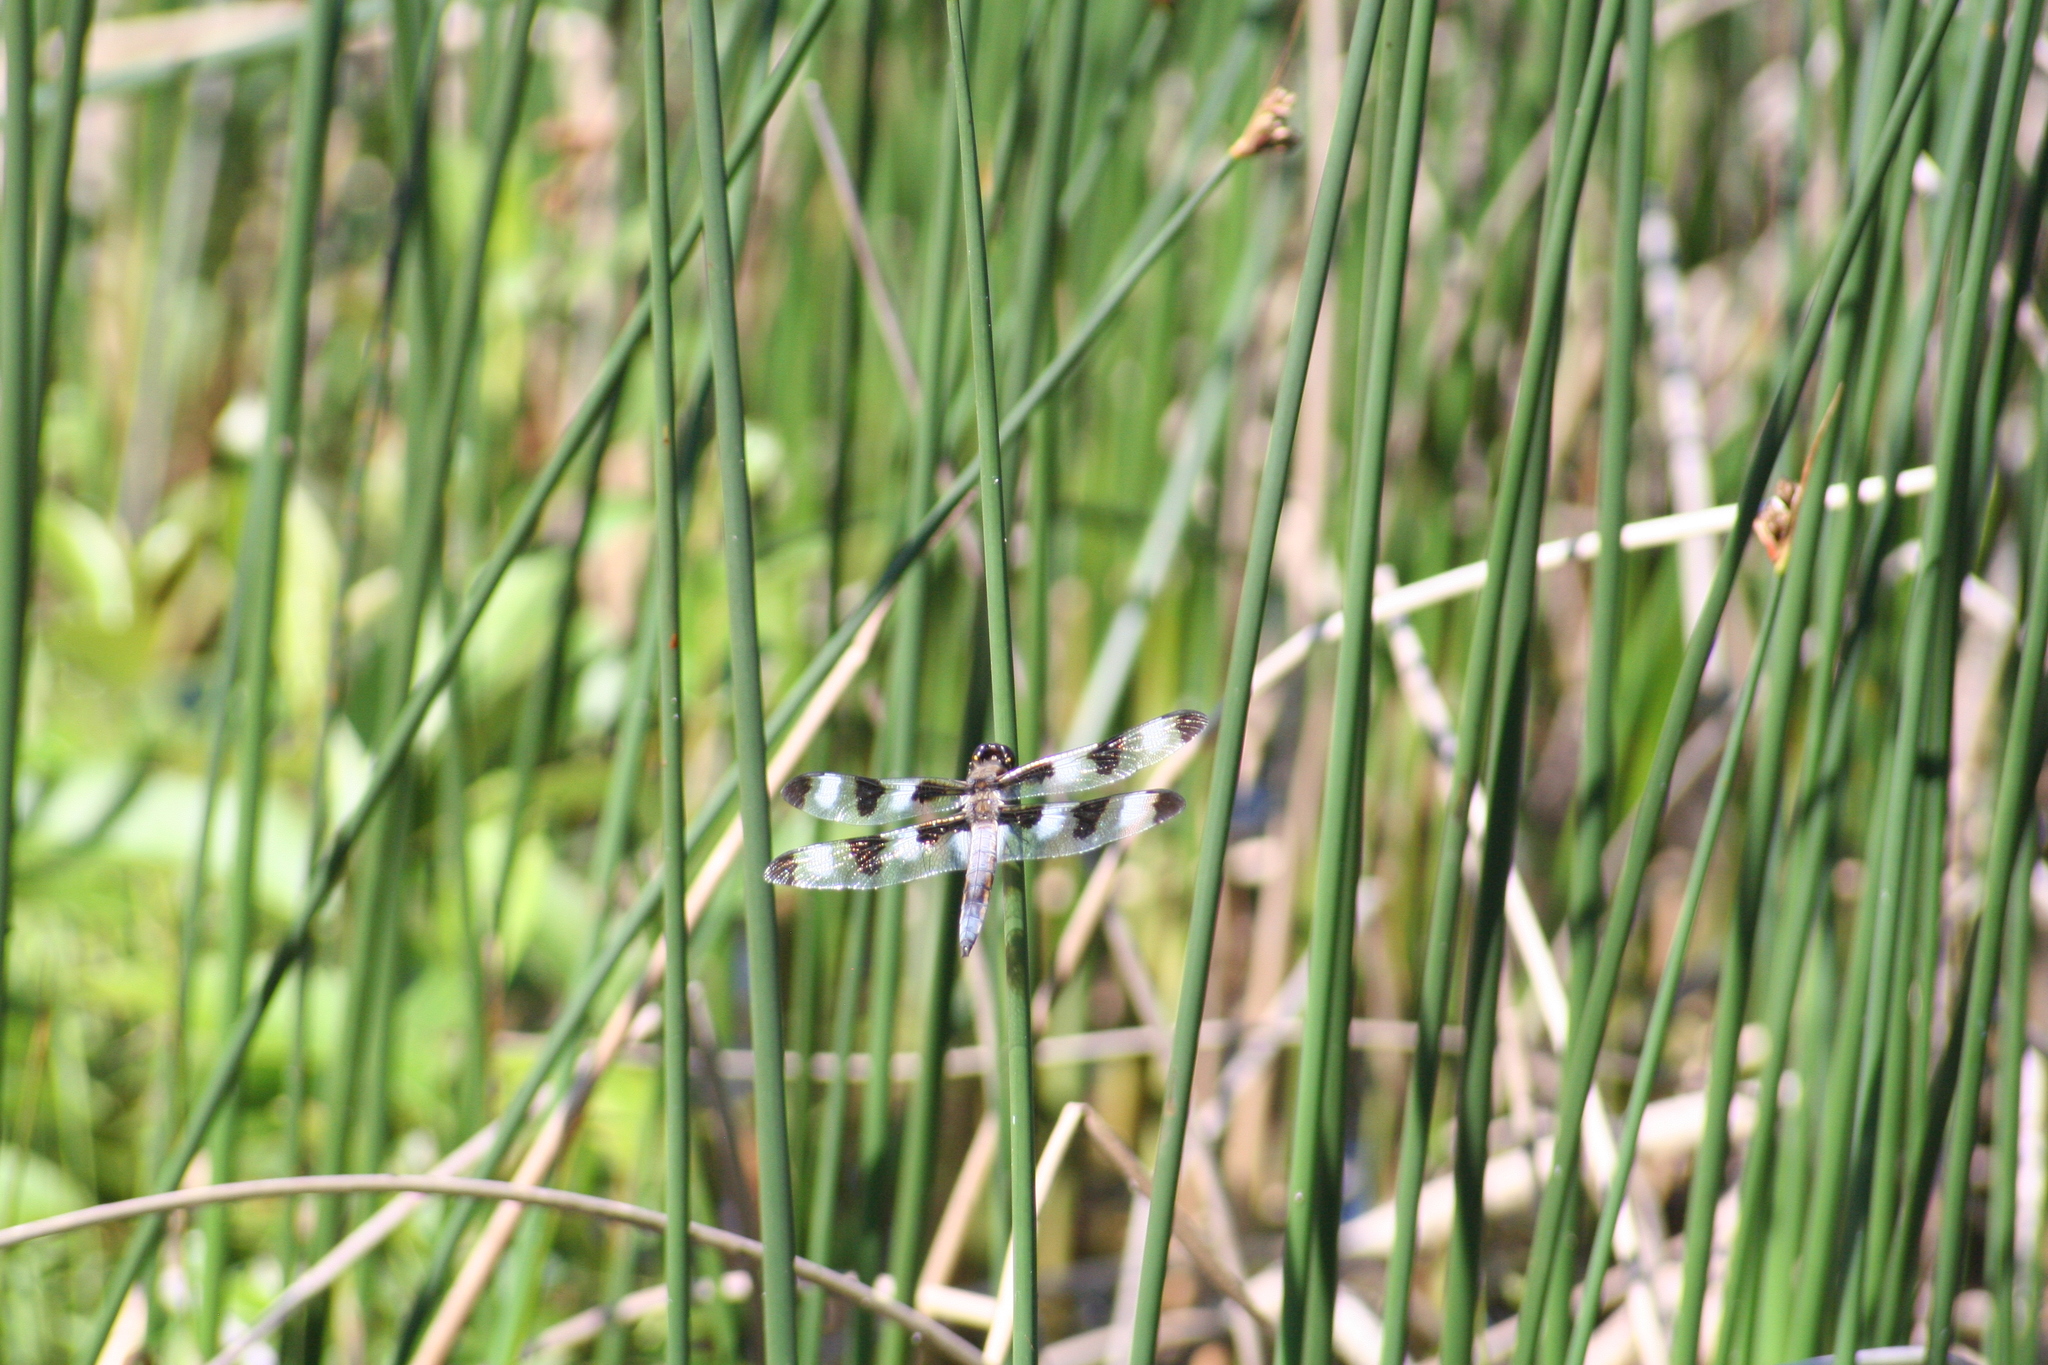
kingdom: Animalia
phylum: Arthropoda
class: Insecta
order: Odonata
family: Libellulidae
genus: Libellula
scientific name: Libellula pulchella
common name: Twelve-spotted skimmer
